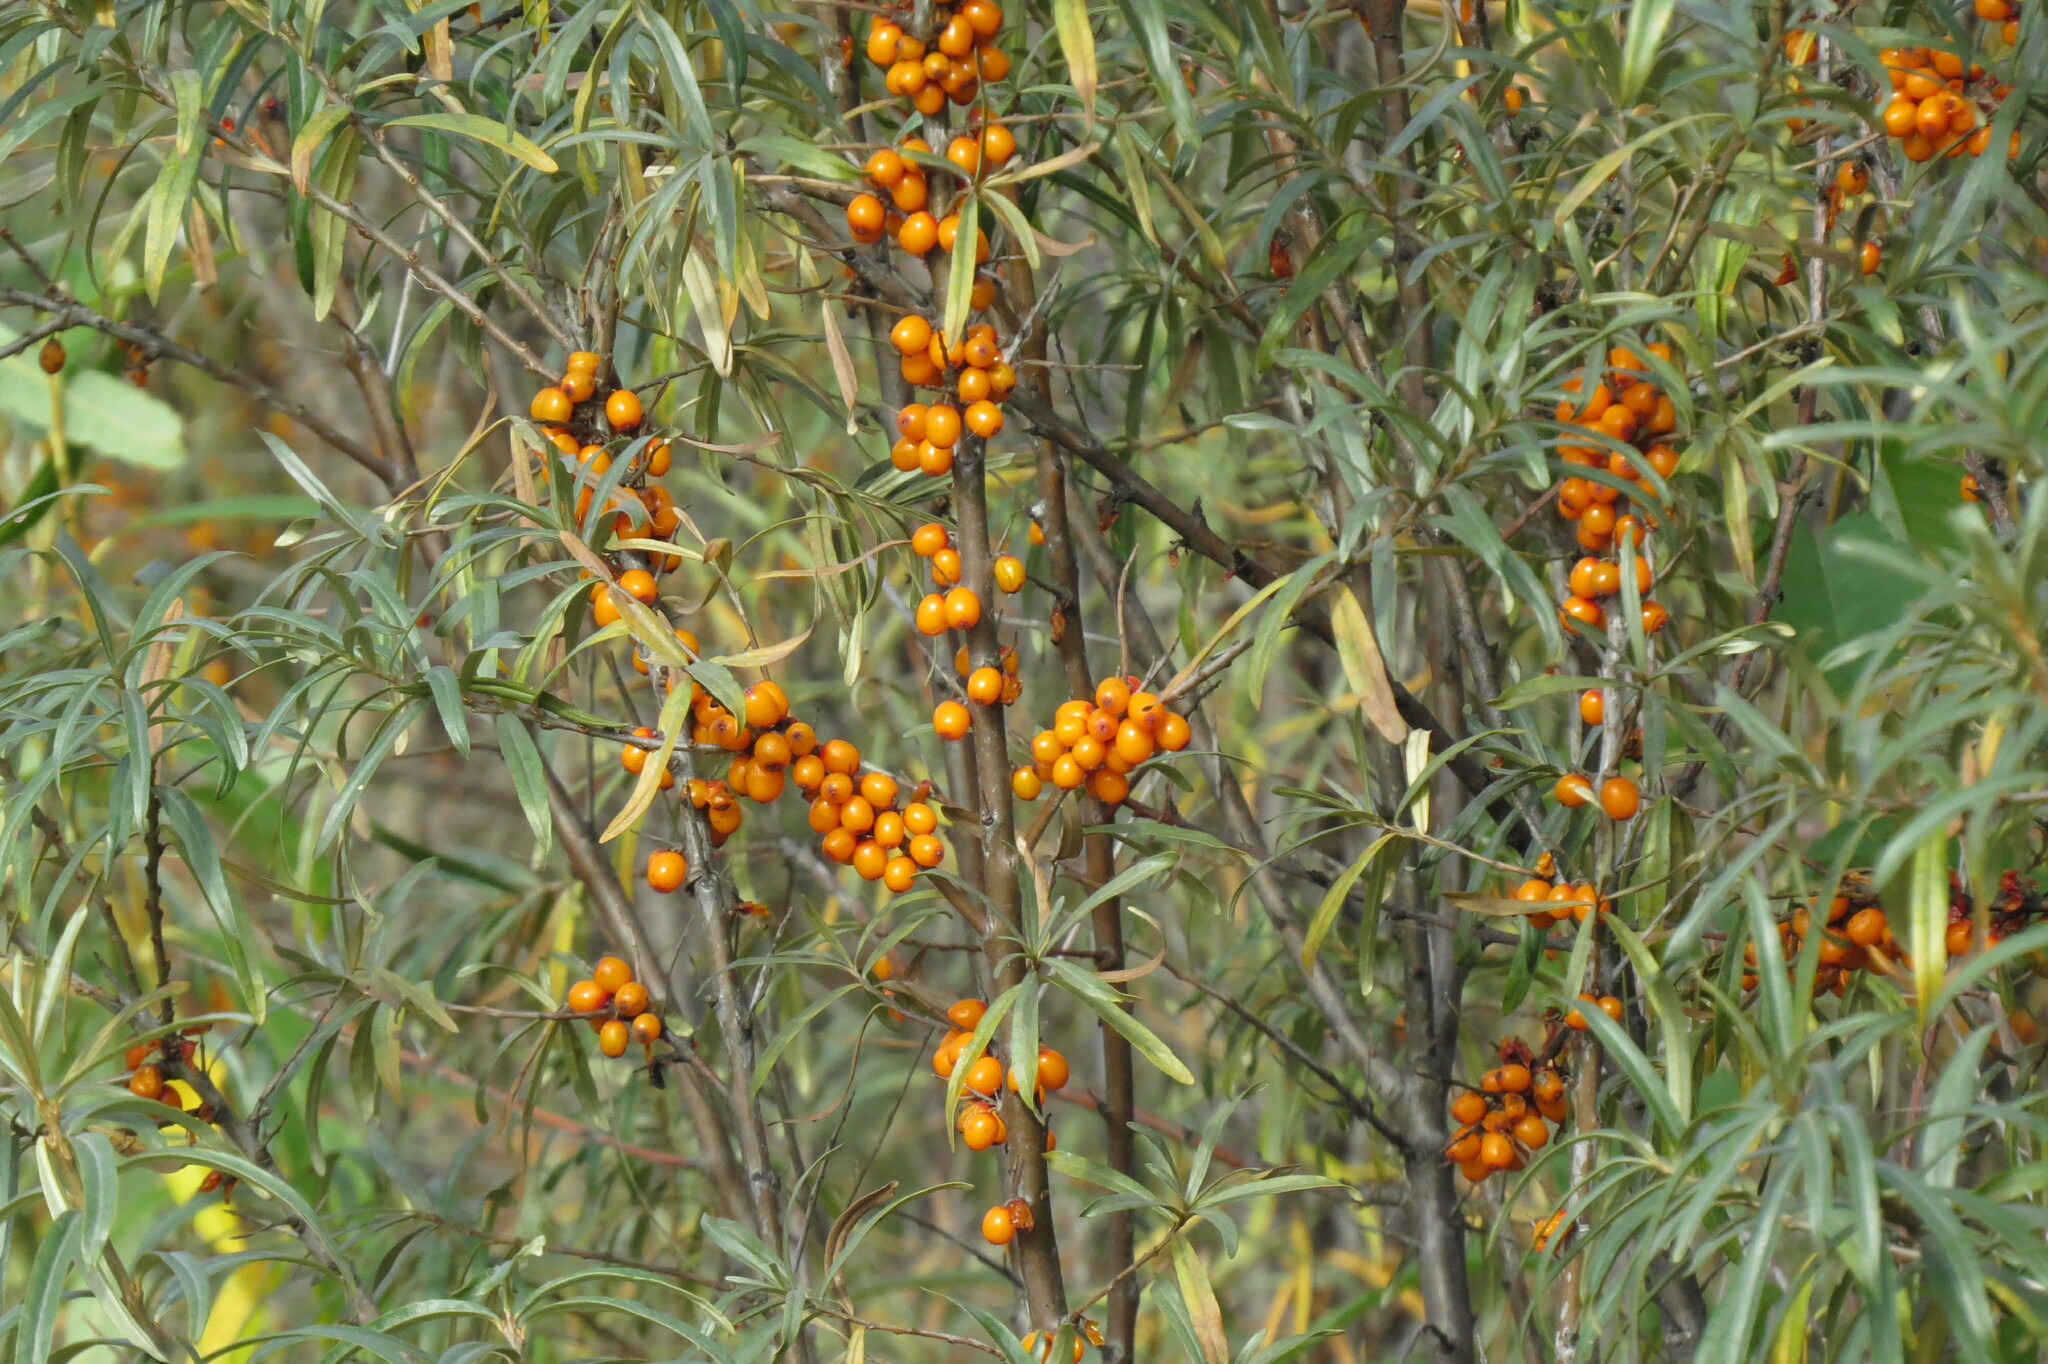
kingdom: Plantae
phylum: Tracheophyta
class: Magnoliopsida
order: Rosales
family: Elaeagnaceae
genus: Hippophae
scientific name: Hippophae rhamnoides
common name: Sea-buckthorn
